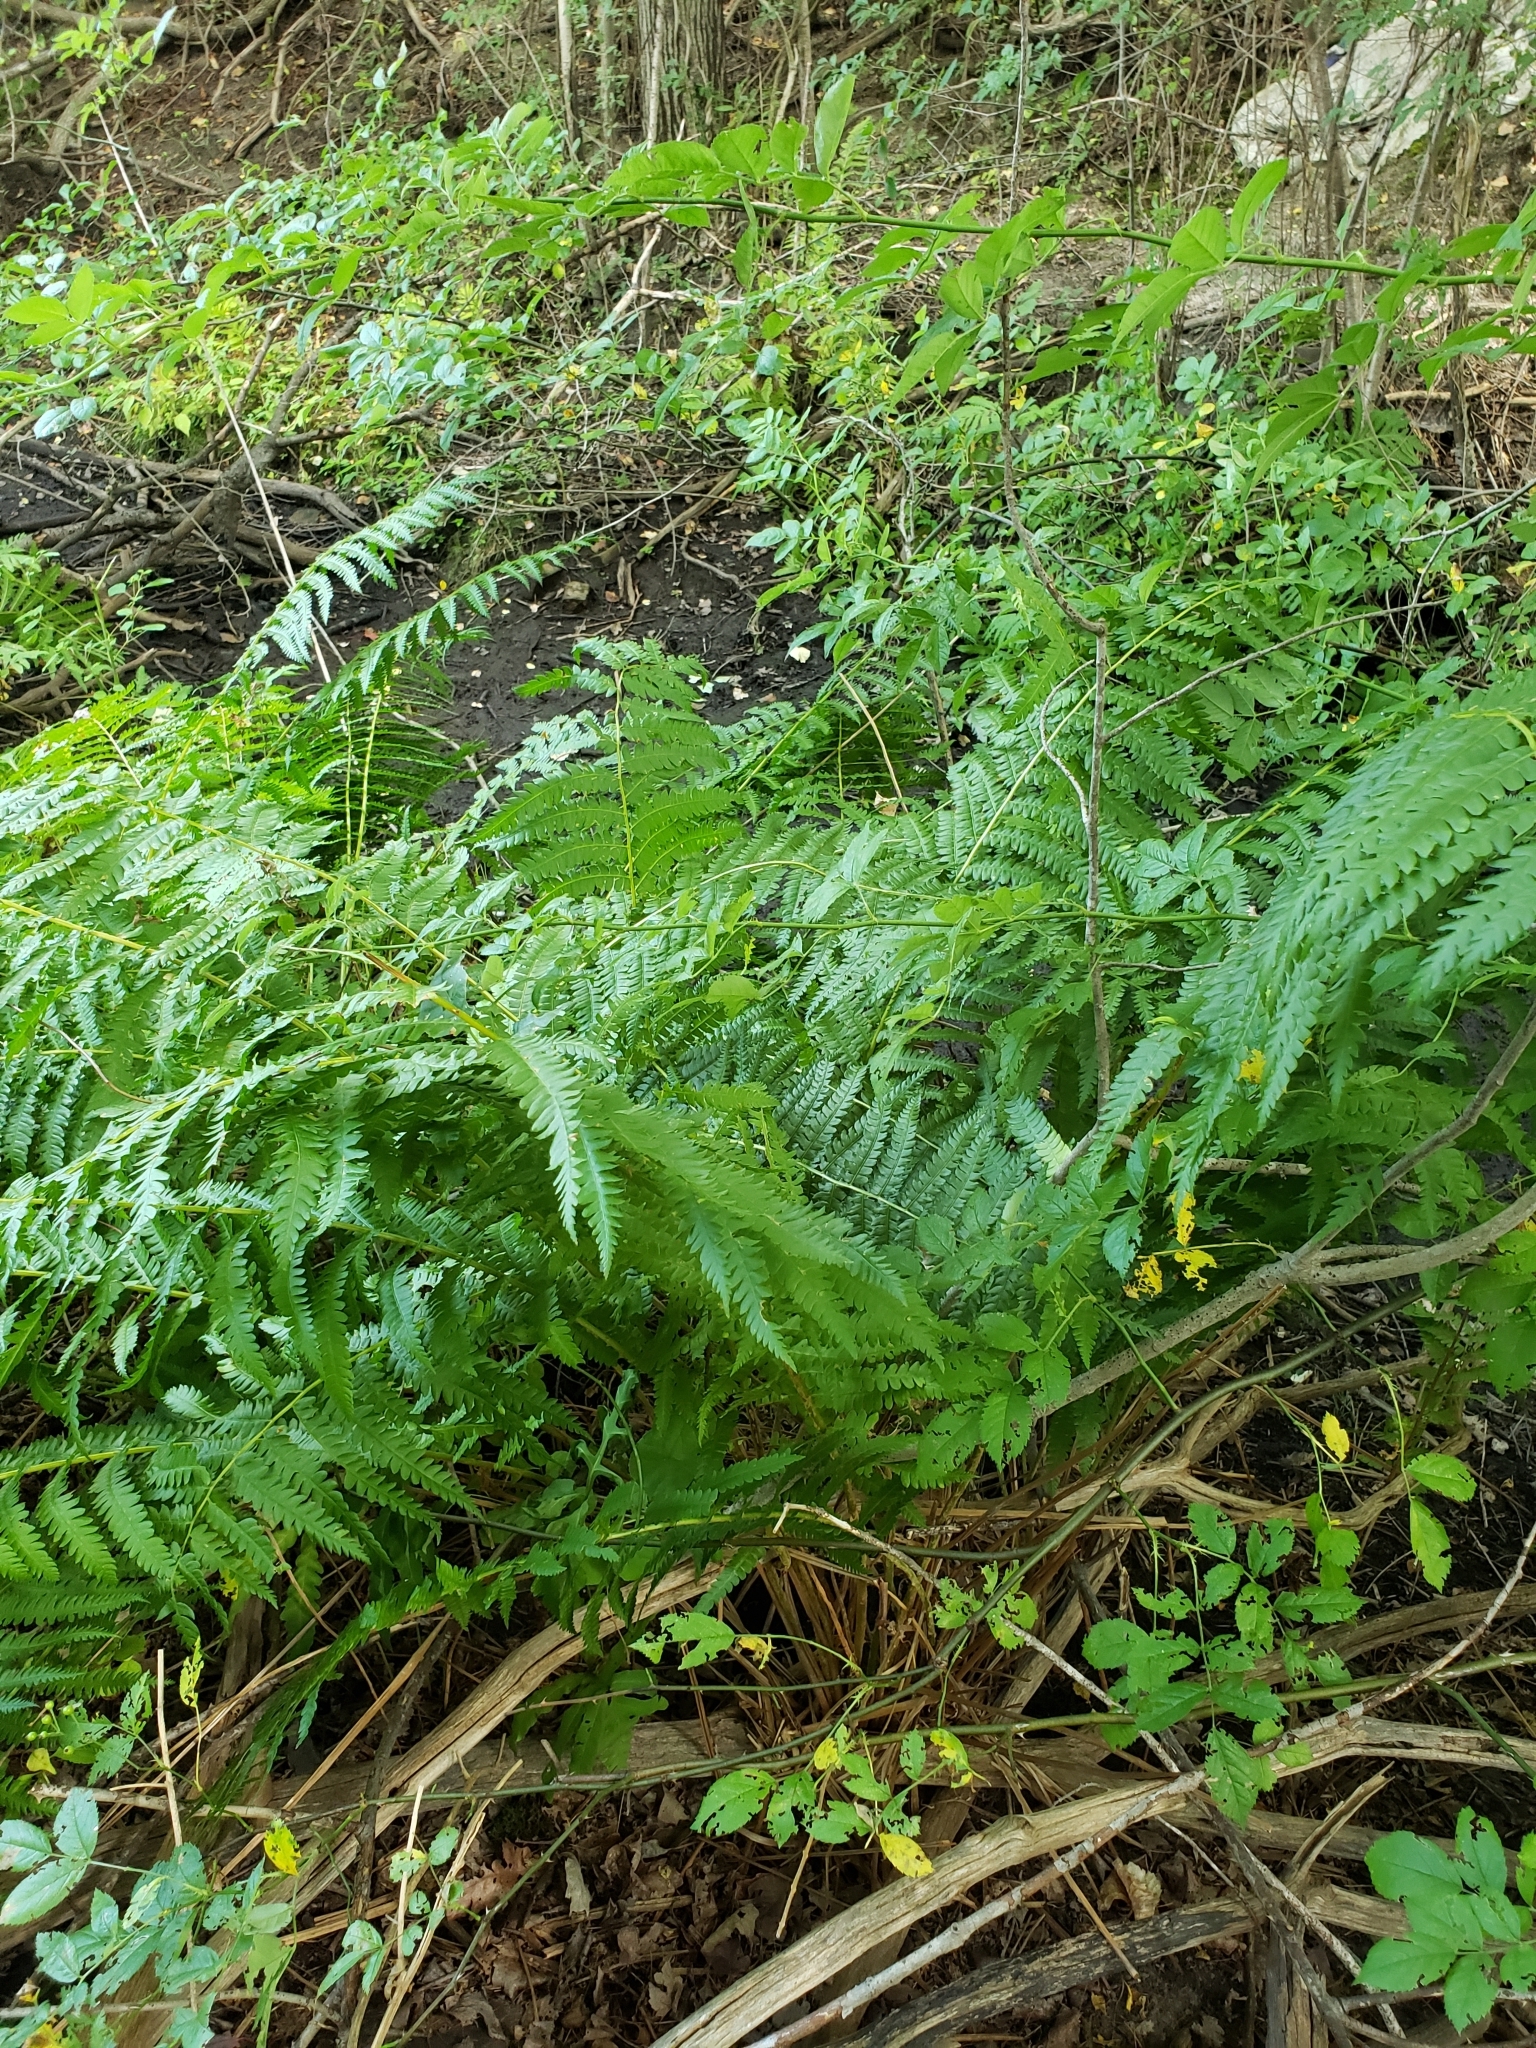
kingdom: Plantae
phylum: Tracheophyta
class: Polypodiopsida
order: Osmundales
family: Osmundaceae
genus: Osmundastrum
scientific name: Osmundastrum cinnamomeum
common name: Cinnamon fern
